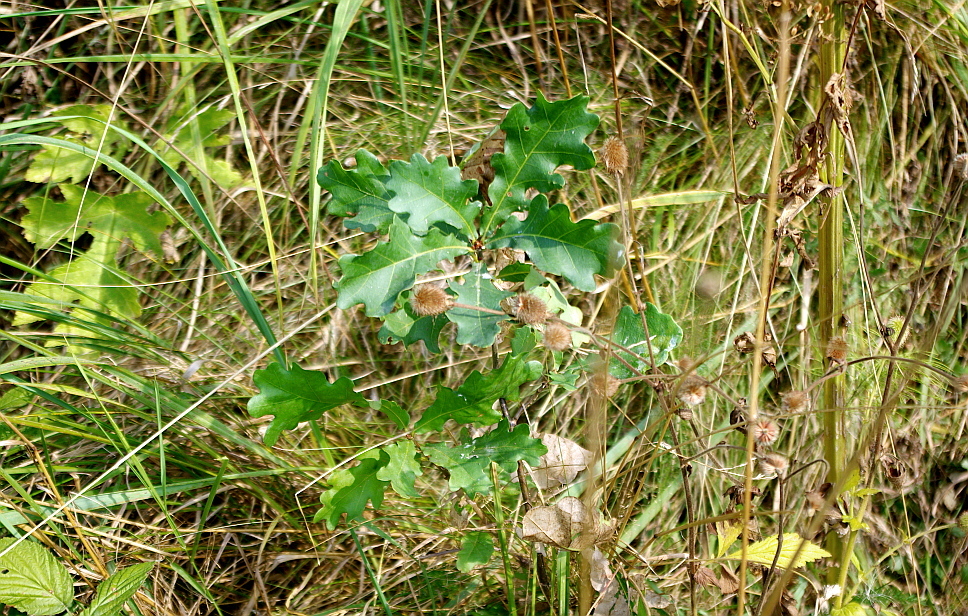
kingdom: Plantae
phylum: Tracheophyta
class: Magnoliopsida
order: Fagales
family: Fagaceae
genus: Quercus
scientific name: Quercus robur
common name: Pedunculate oak
